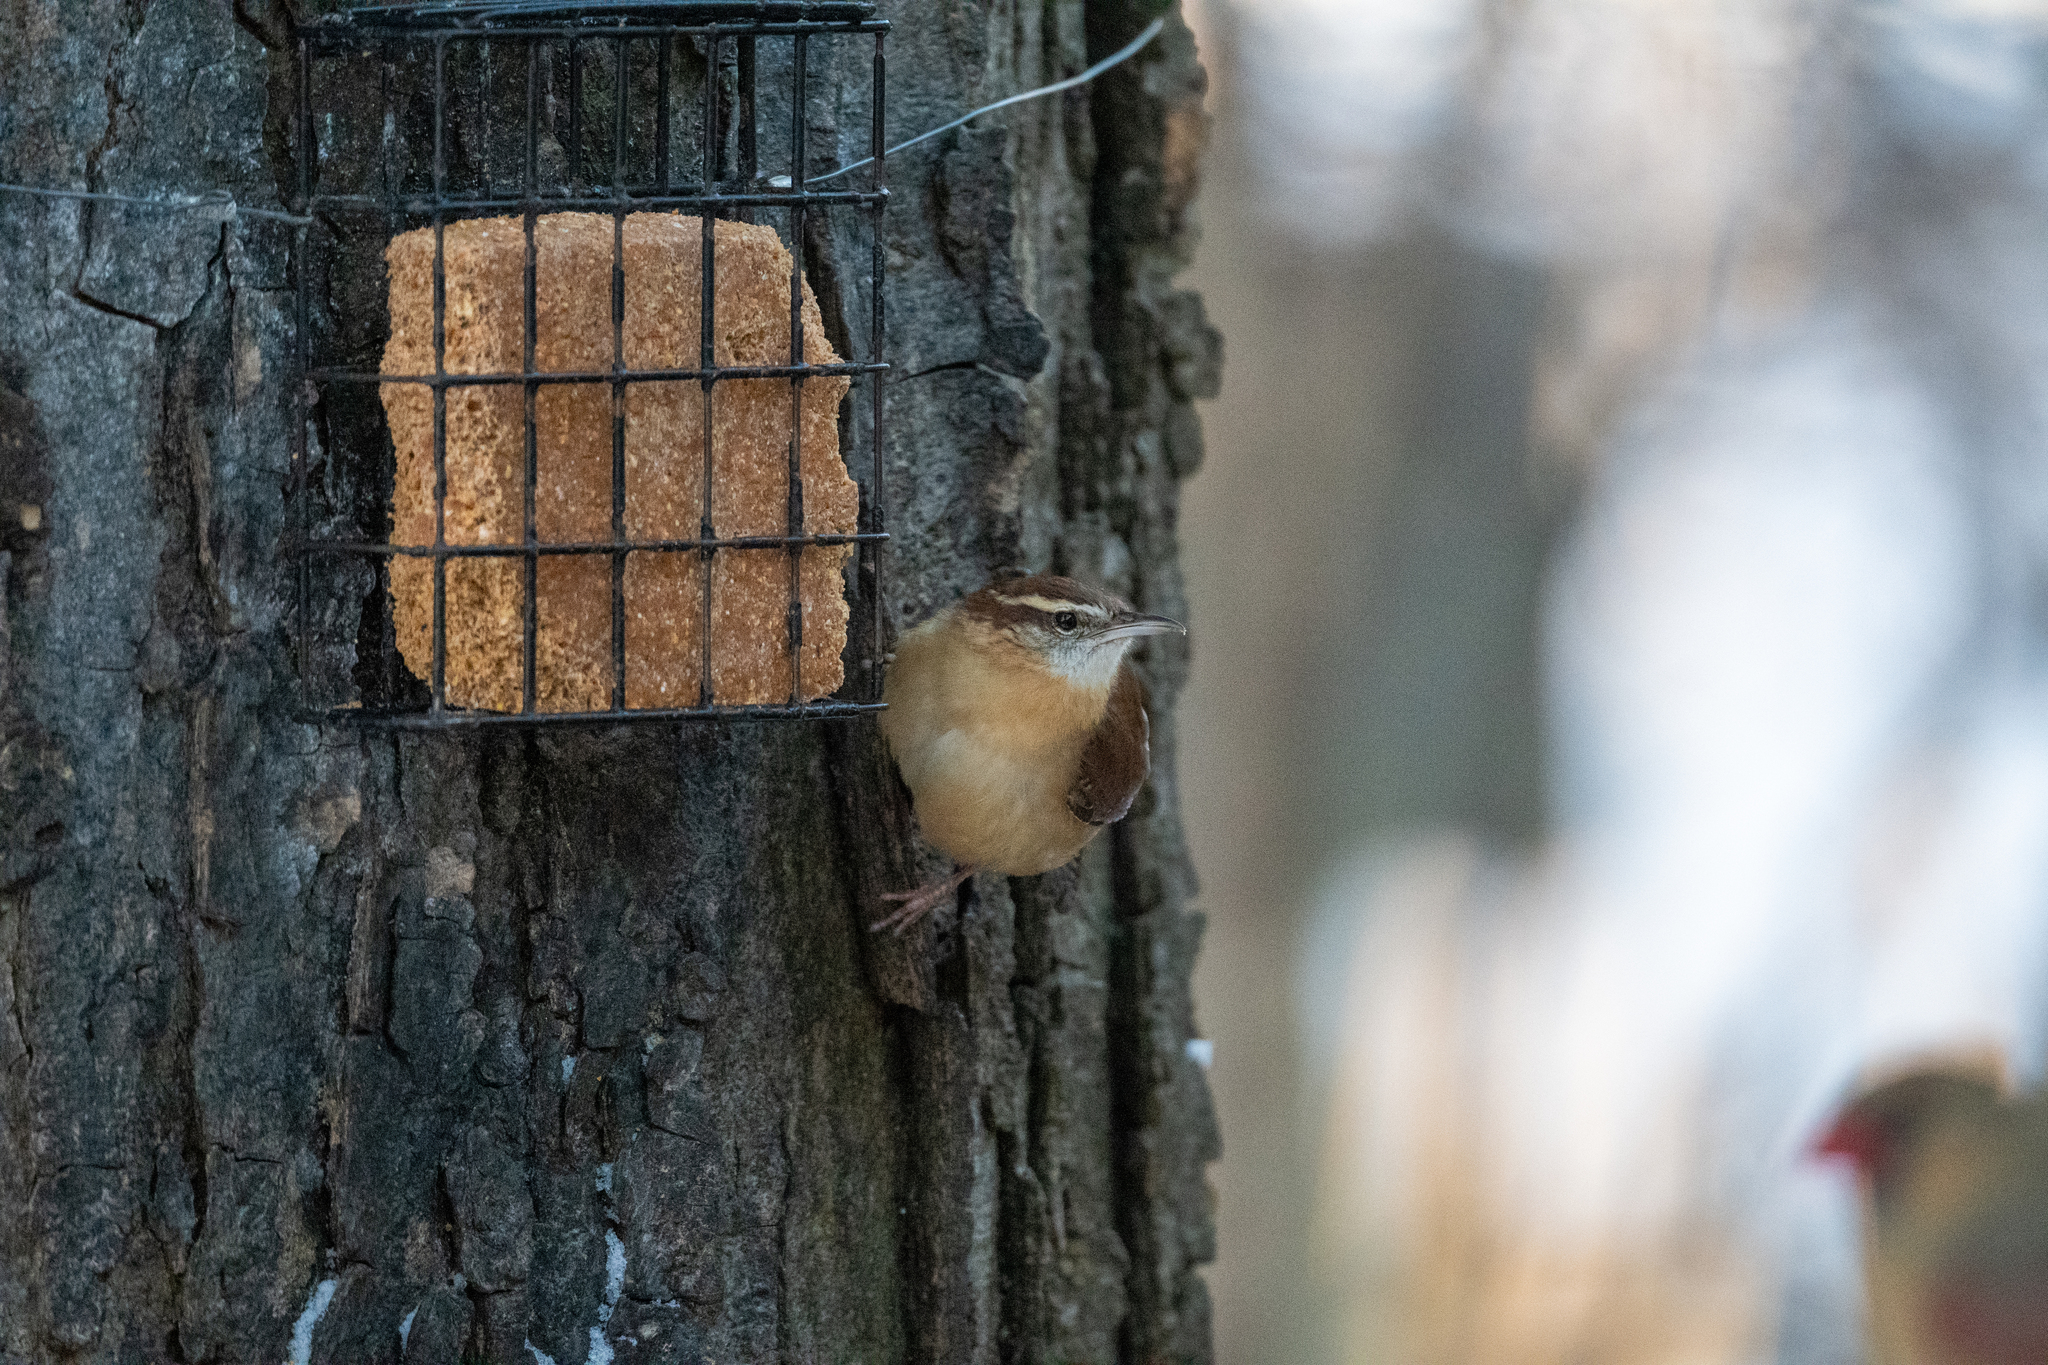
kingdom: Animalia
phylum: Chordata
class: Aves
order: Passeriformes
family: Troglodytidae
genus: Thryothorus
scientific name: Thryothorus ludovicianus
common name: Carolina wren
